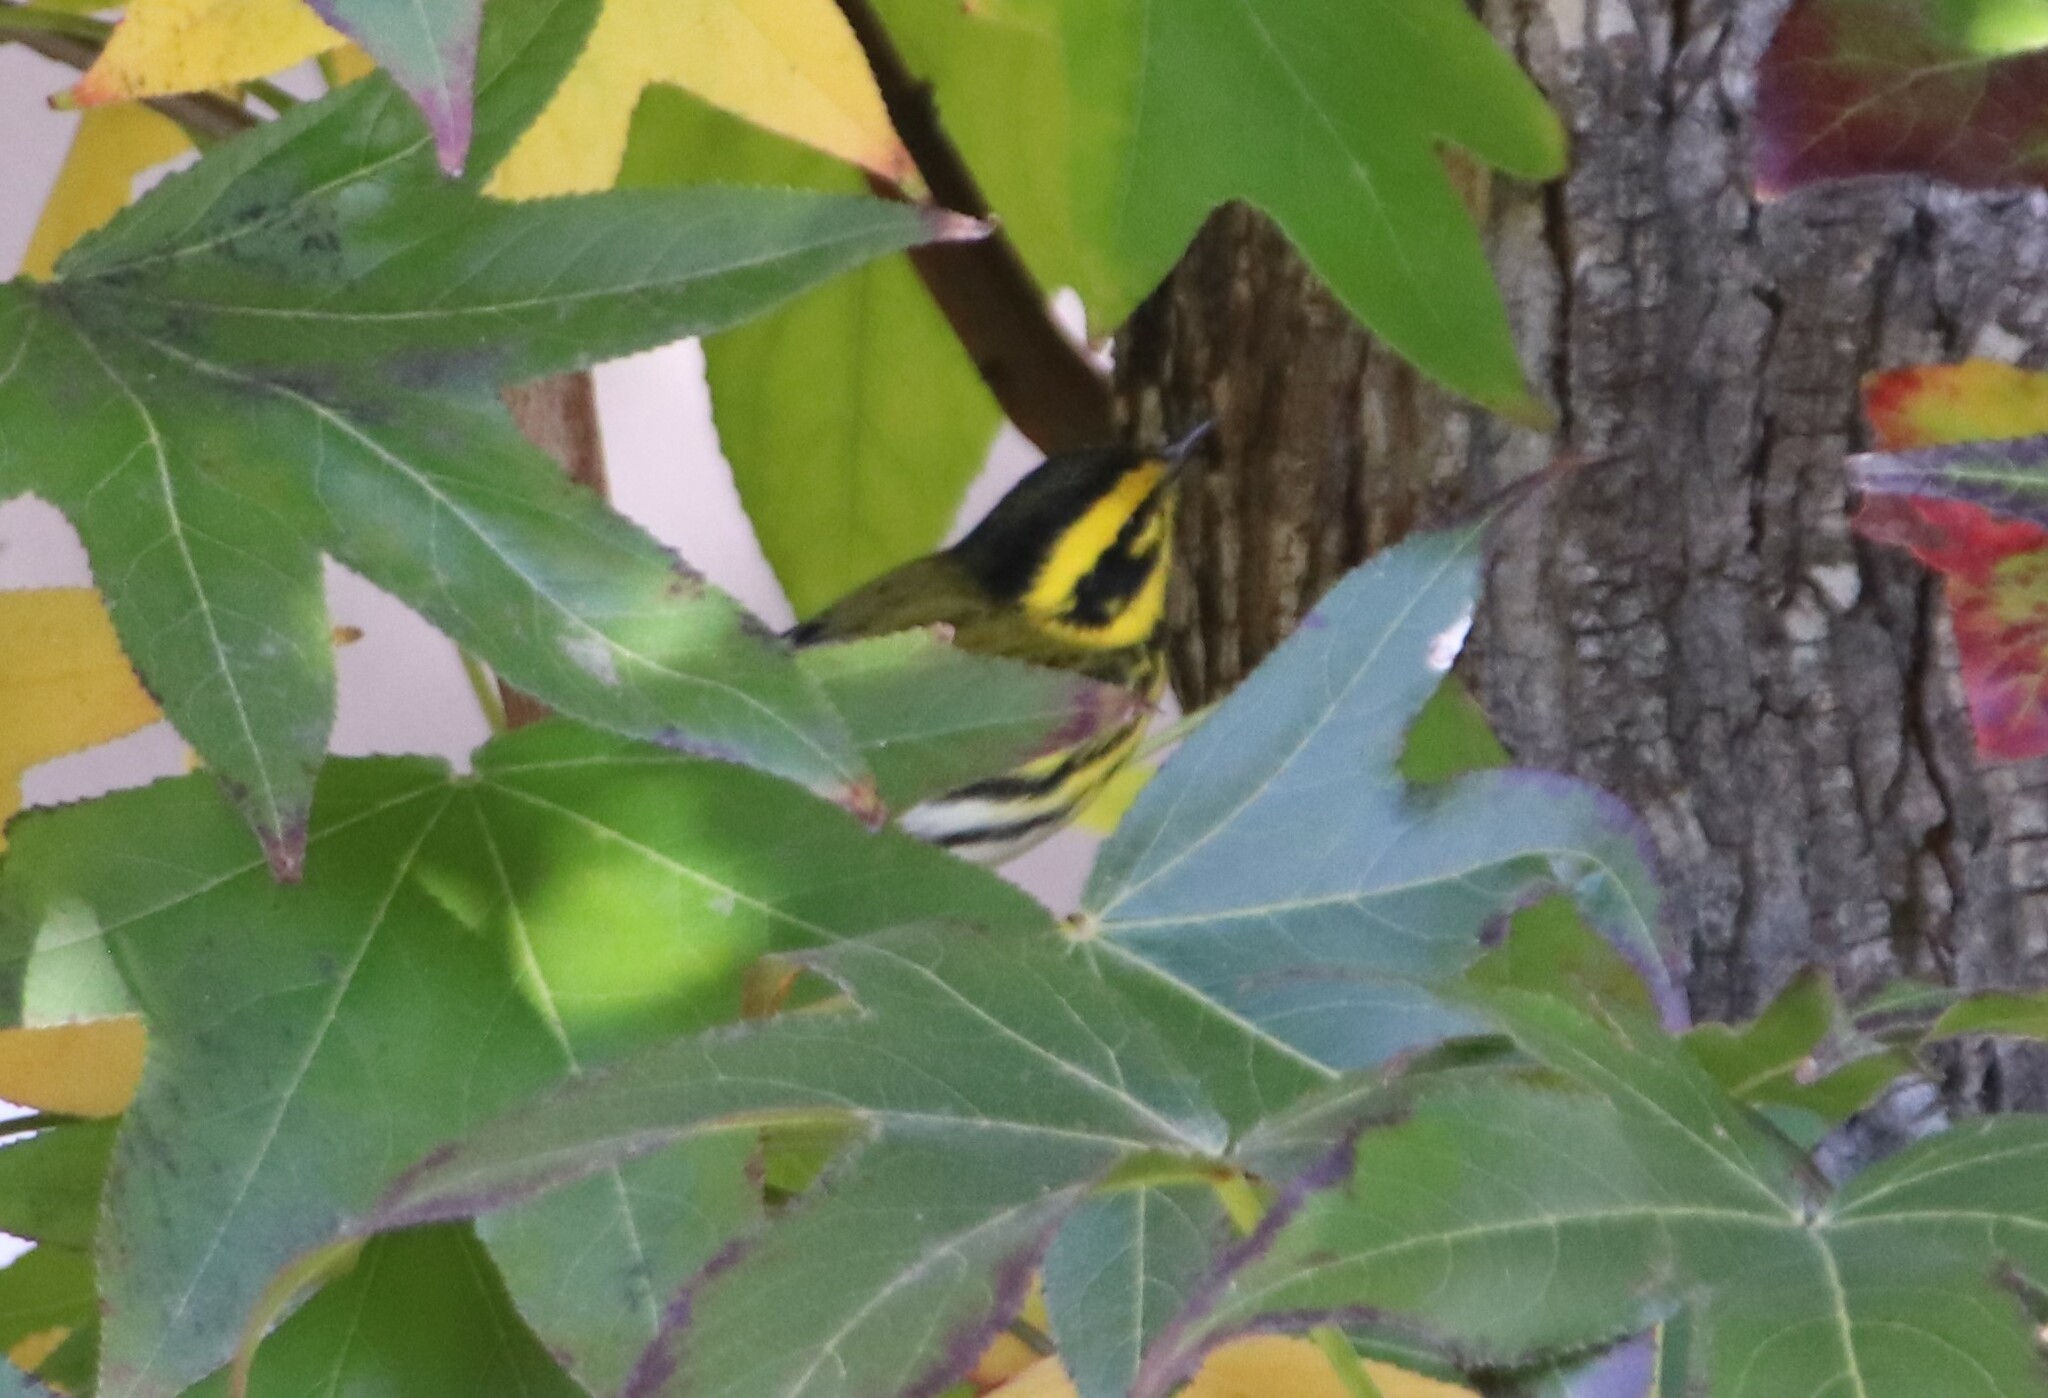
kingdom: Animalia
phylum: Chordata
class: Aves
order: Passeriformes
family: Parulidae
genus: Setophaga
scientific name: Setophaga townsendi
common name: Townsend's warbler
